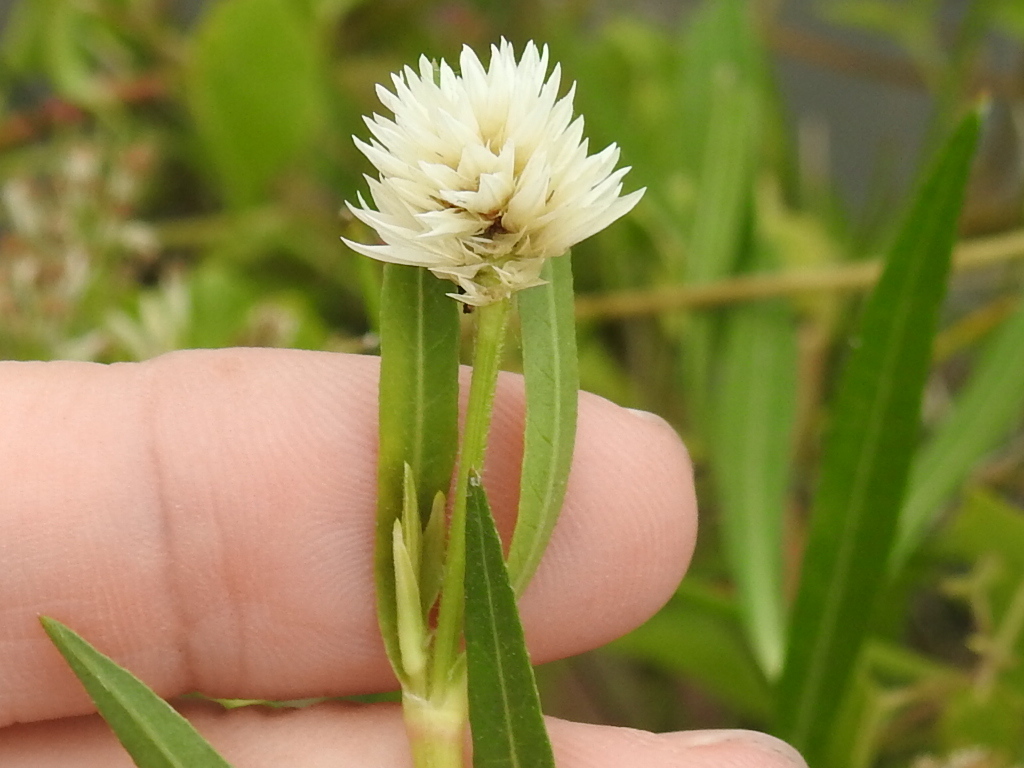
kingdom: Plantae
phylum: Tracheophyta
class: Magnoliopsida
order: Caryophyllales
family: Amaranthaceae
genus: Alternanthera
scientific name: Alternanthera philoxeroides
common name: Alligatorweed
